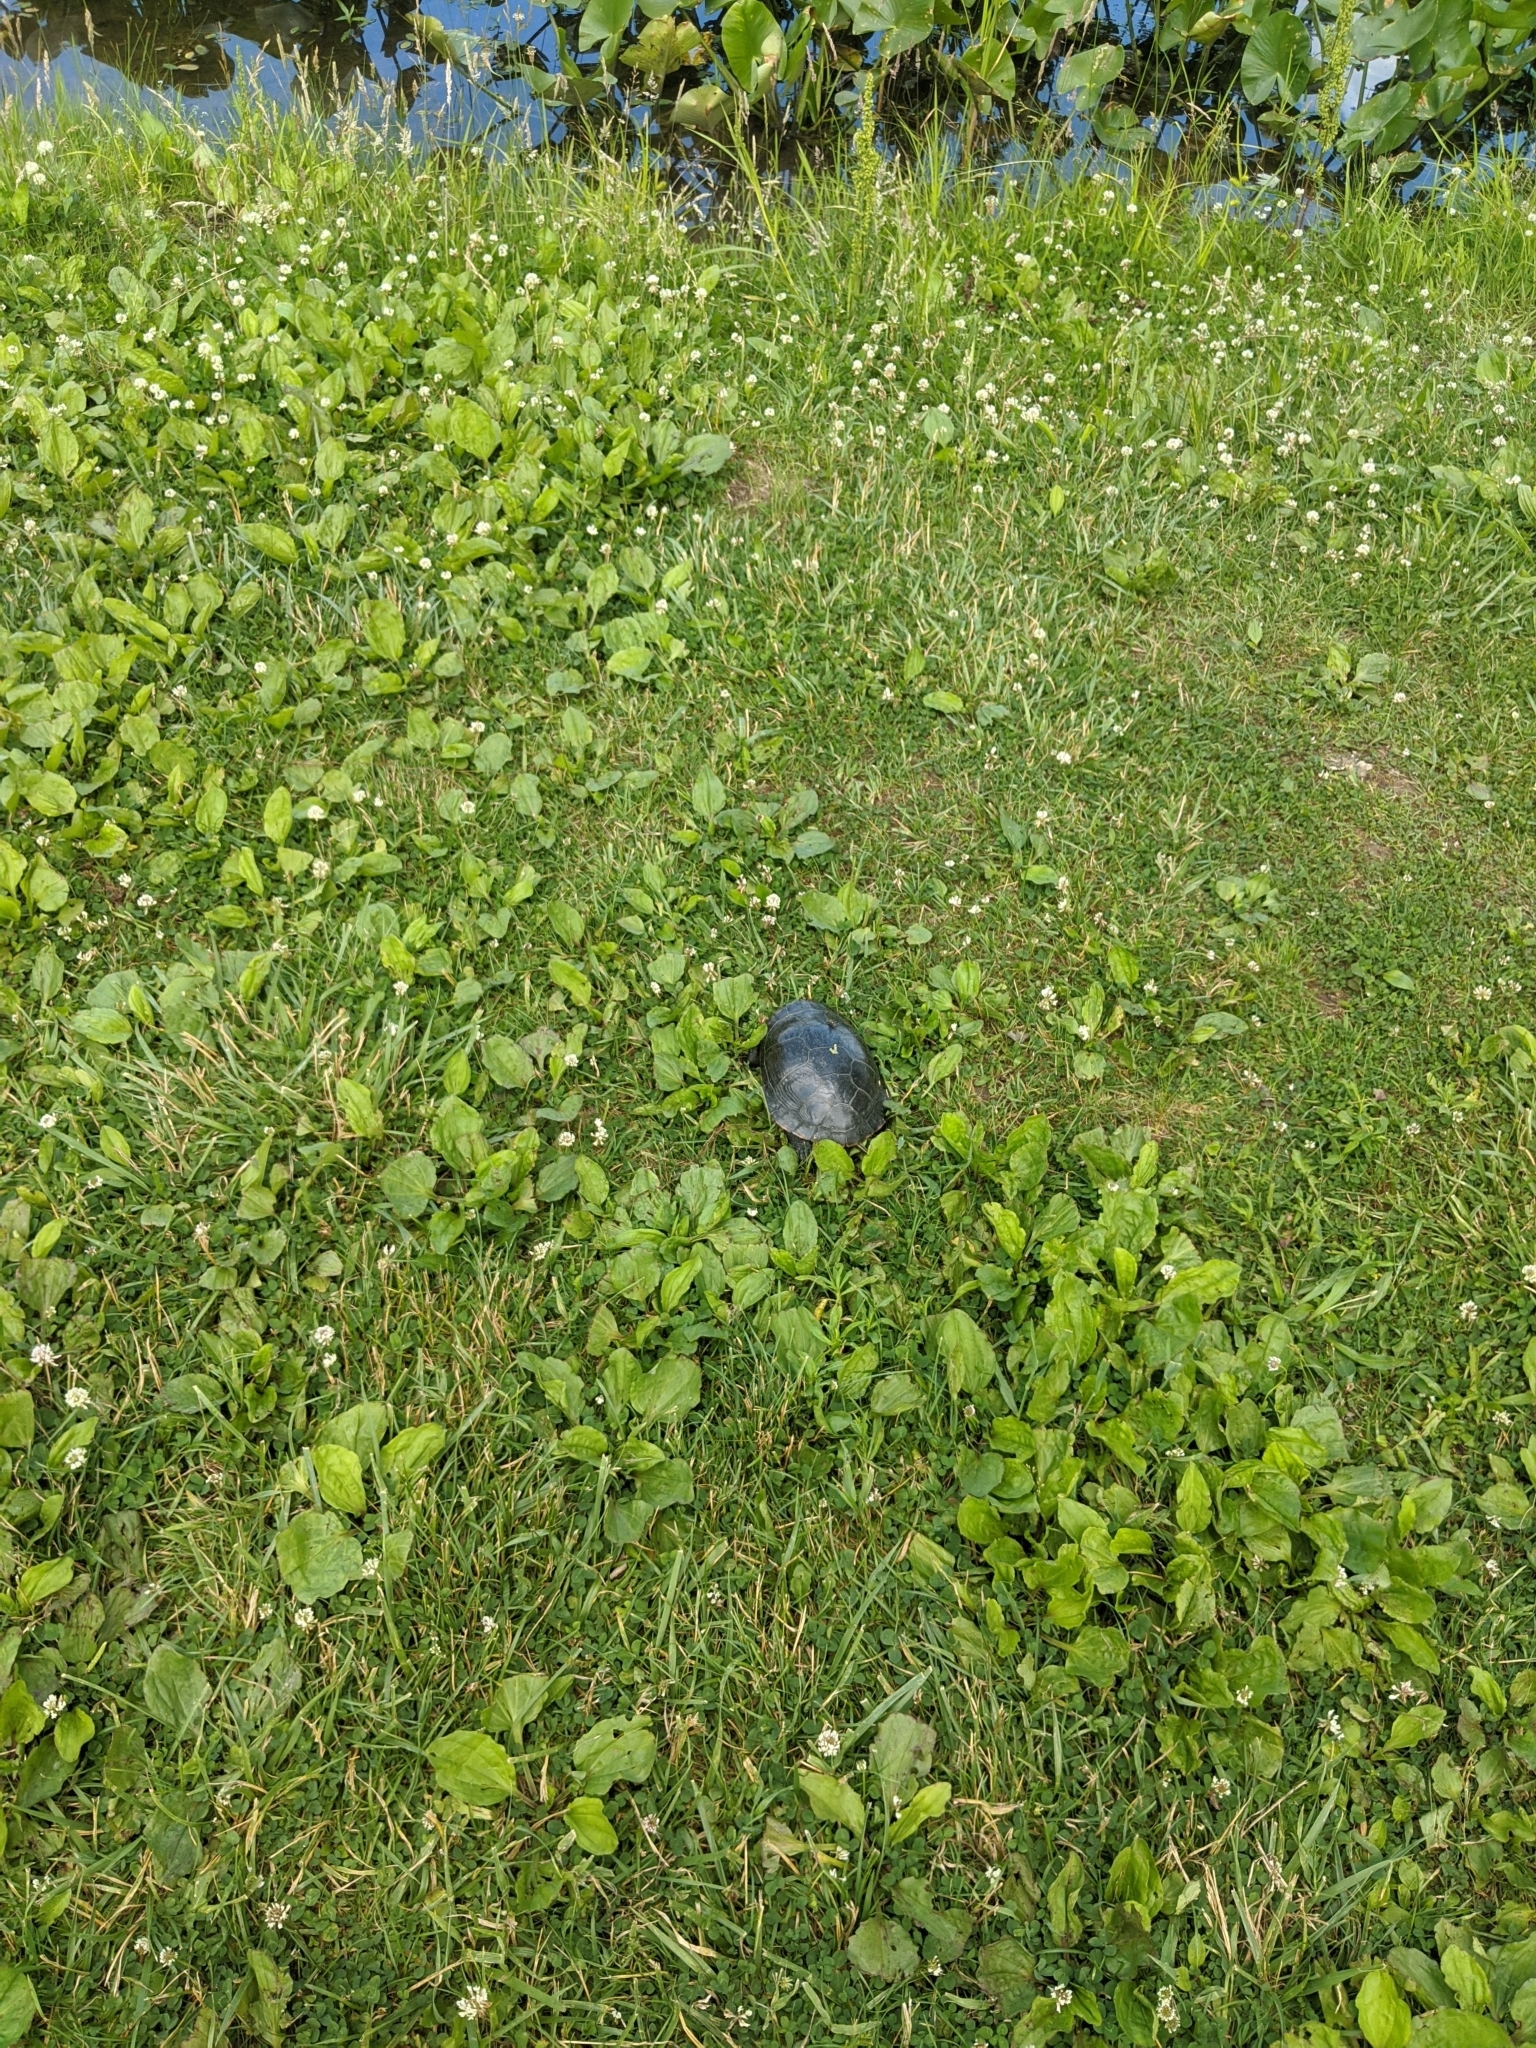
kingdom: Animalia
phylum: Chordata
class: Testudines
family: Emydidae
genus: Chrysemys
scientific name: Chrysemys picta
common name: Painted turtle
